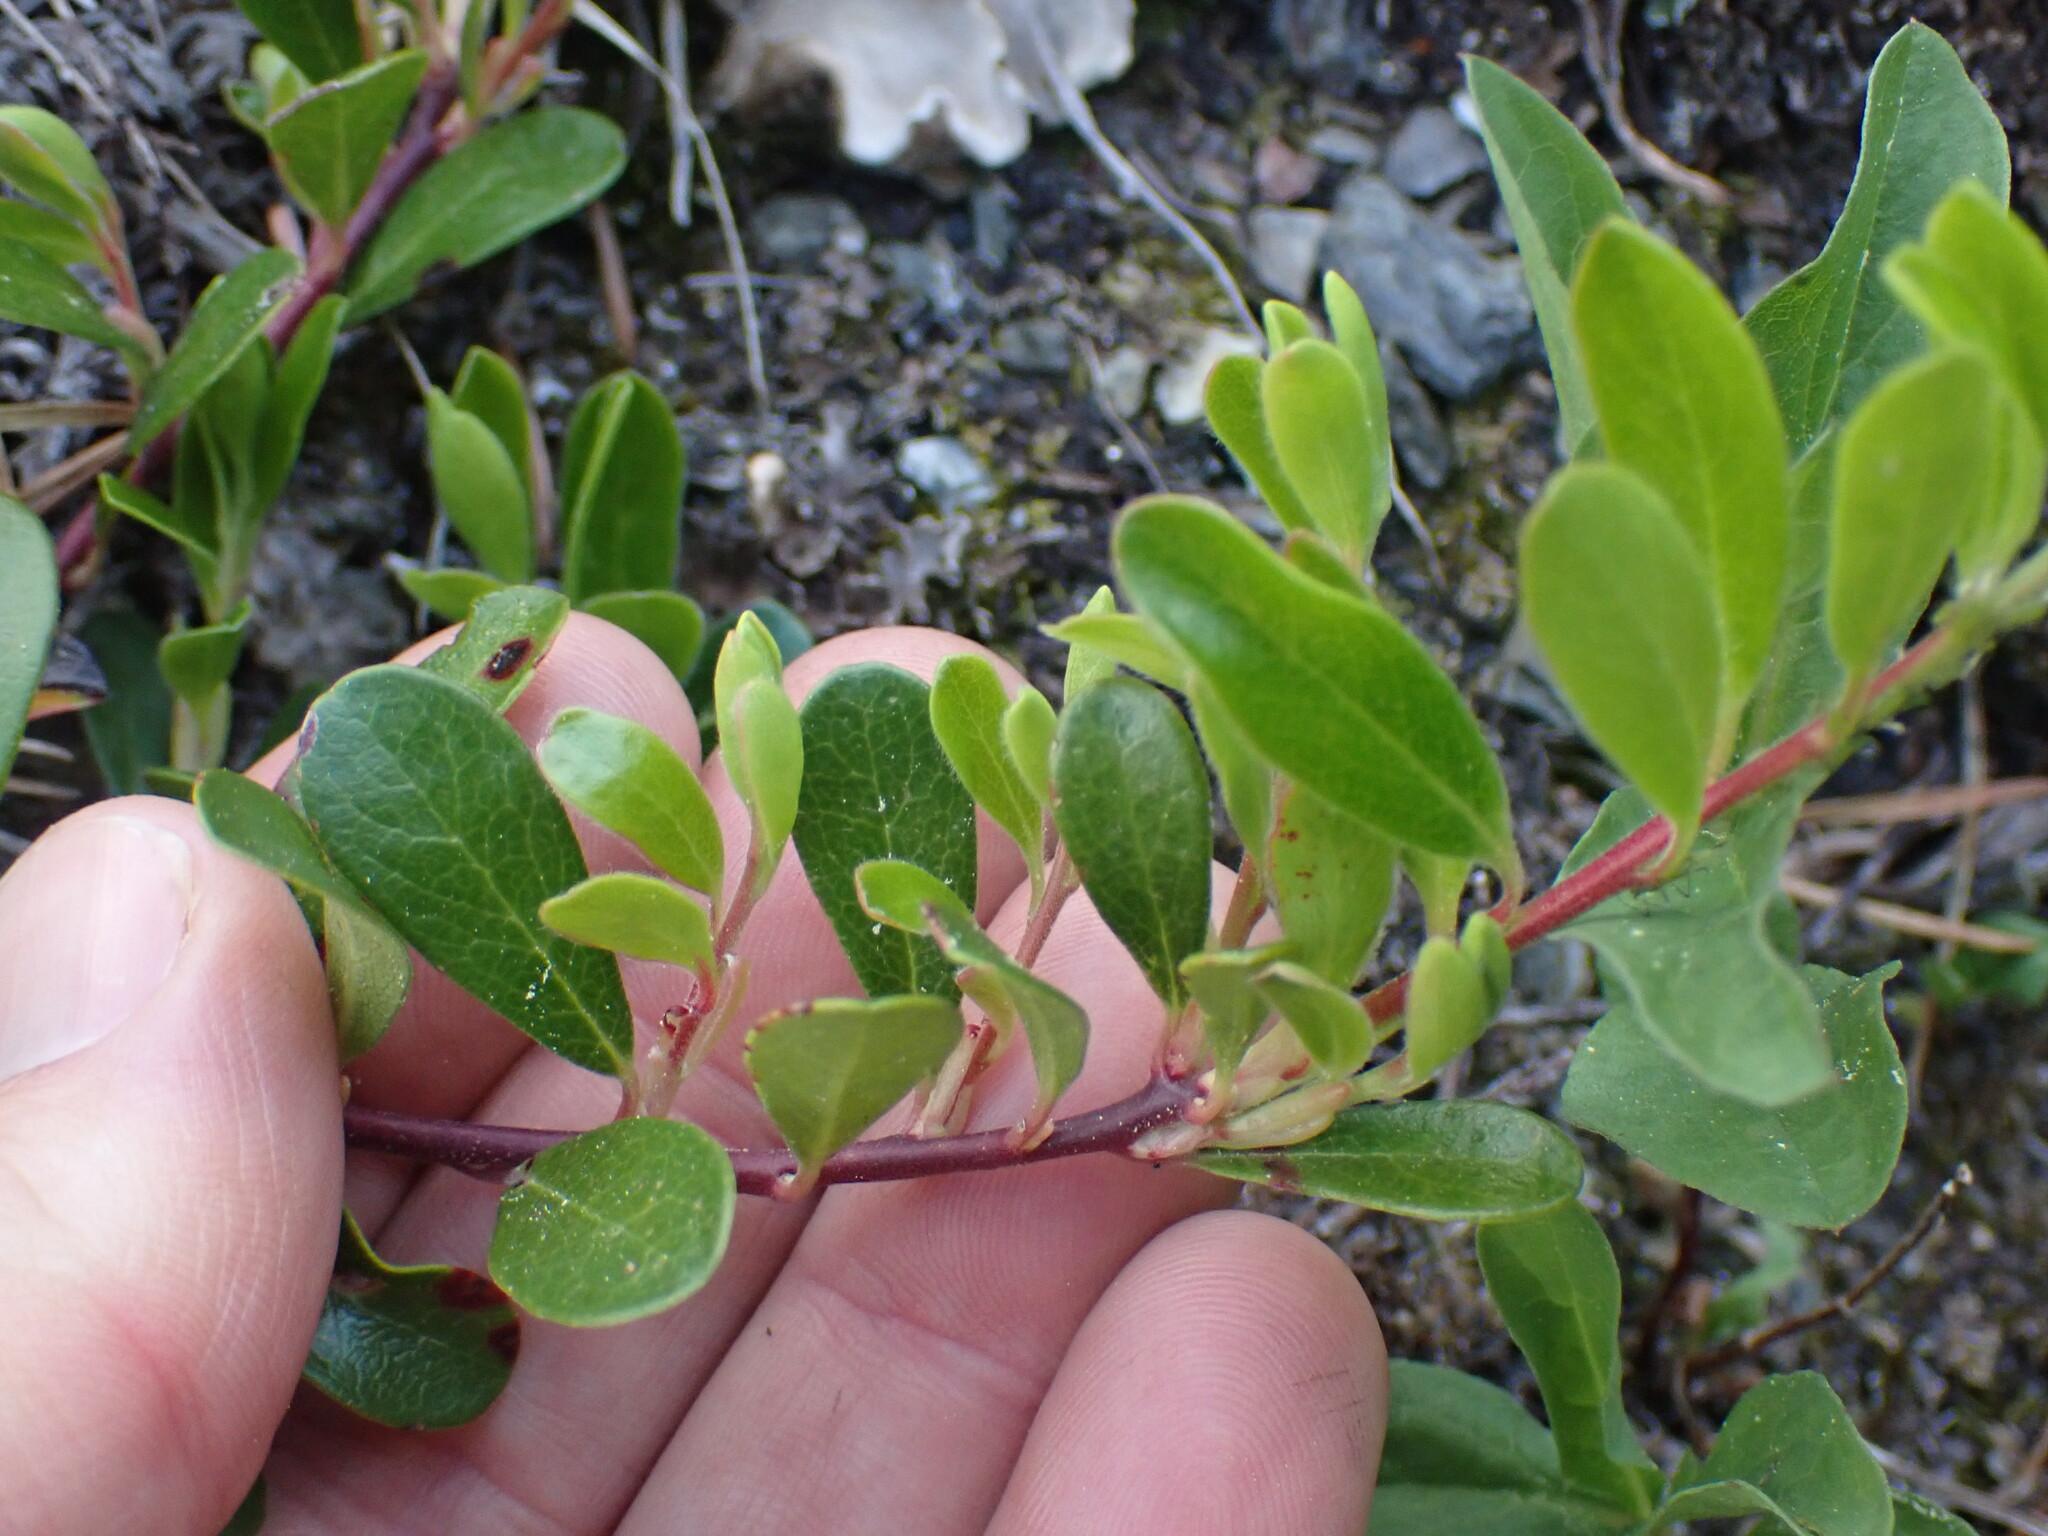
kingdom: Plantae
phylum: Tracheophyta
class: Magnoliopsida
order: Ericales
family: Ericaceae
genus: Arctostaphylos
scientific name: Arctostaphylos uva-ursi
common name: Bearberry
